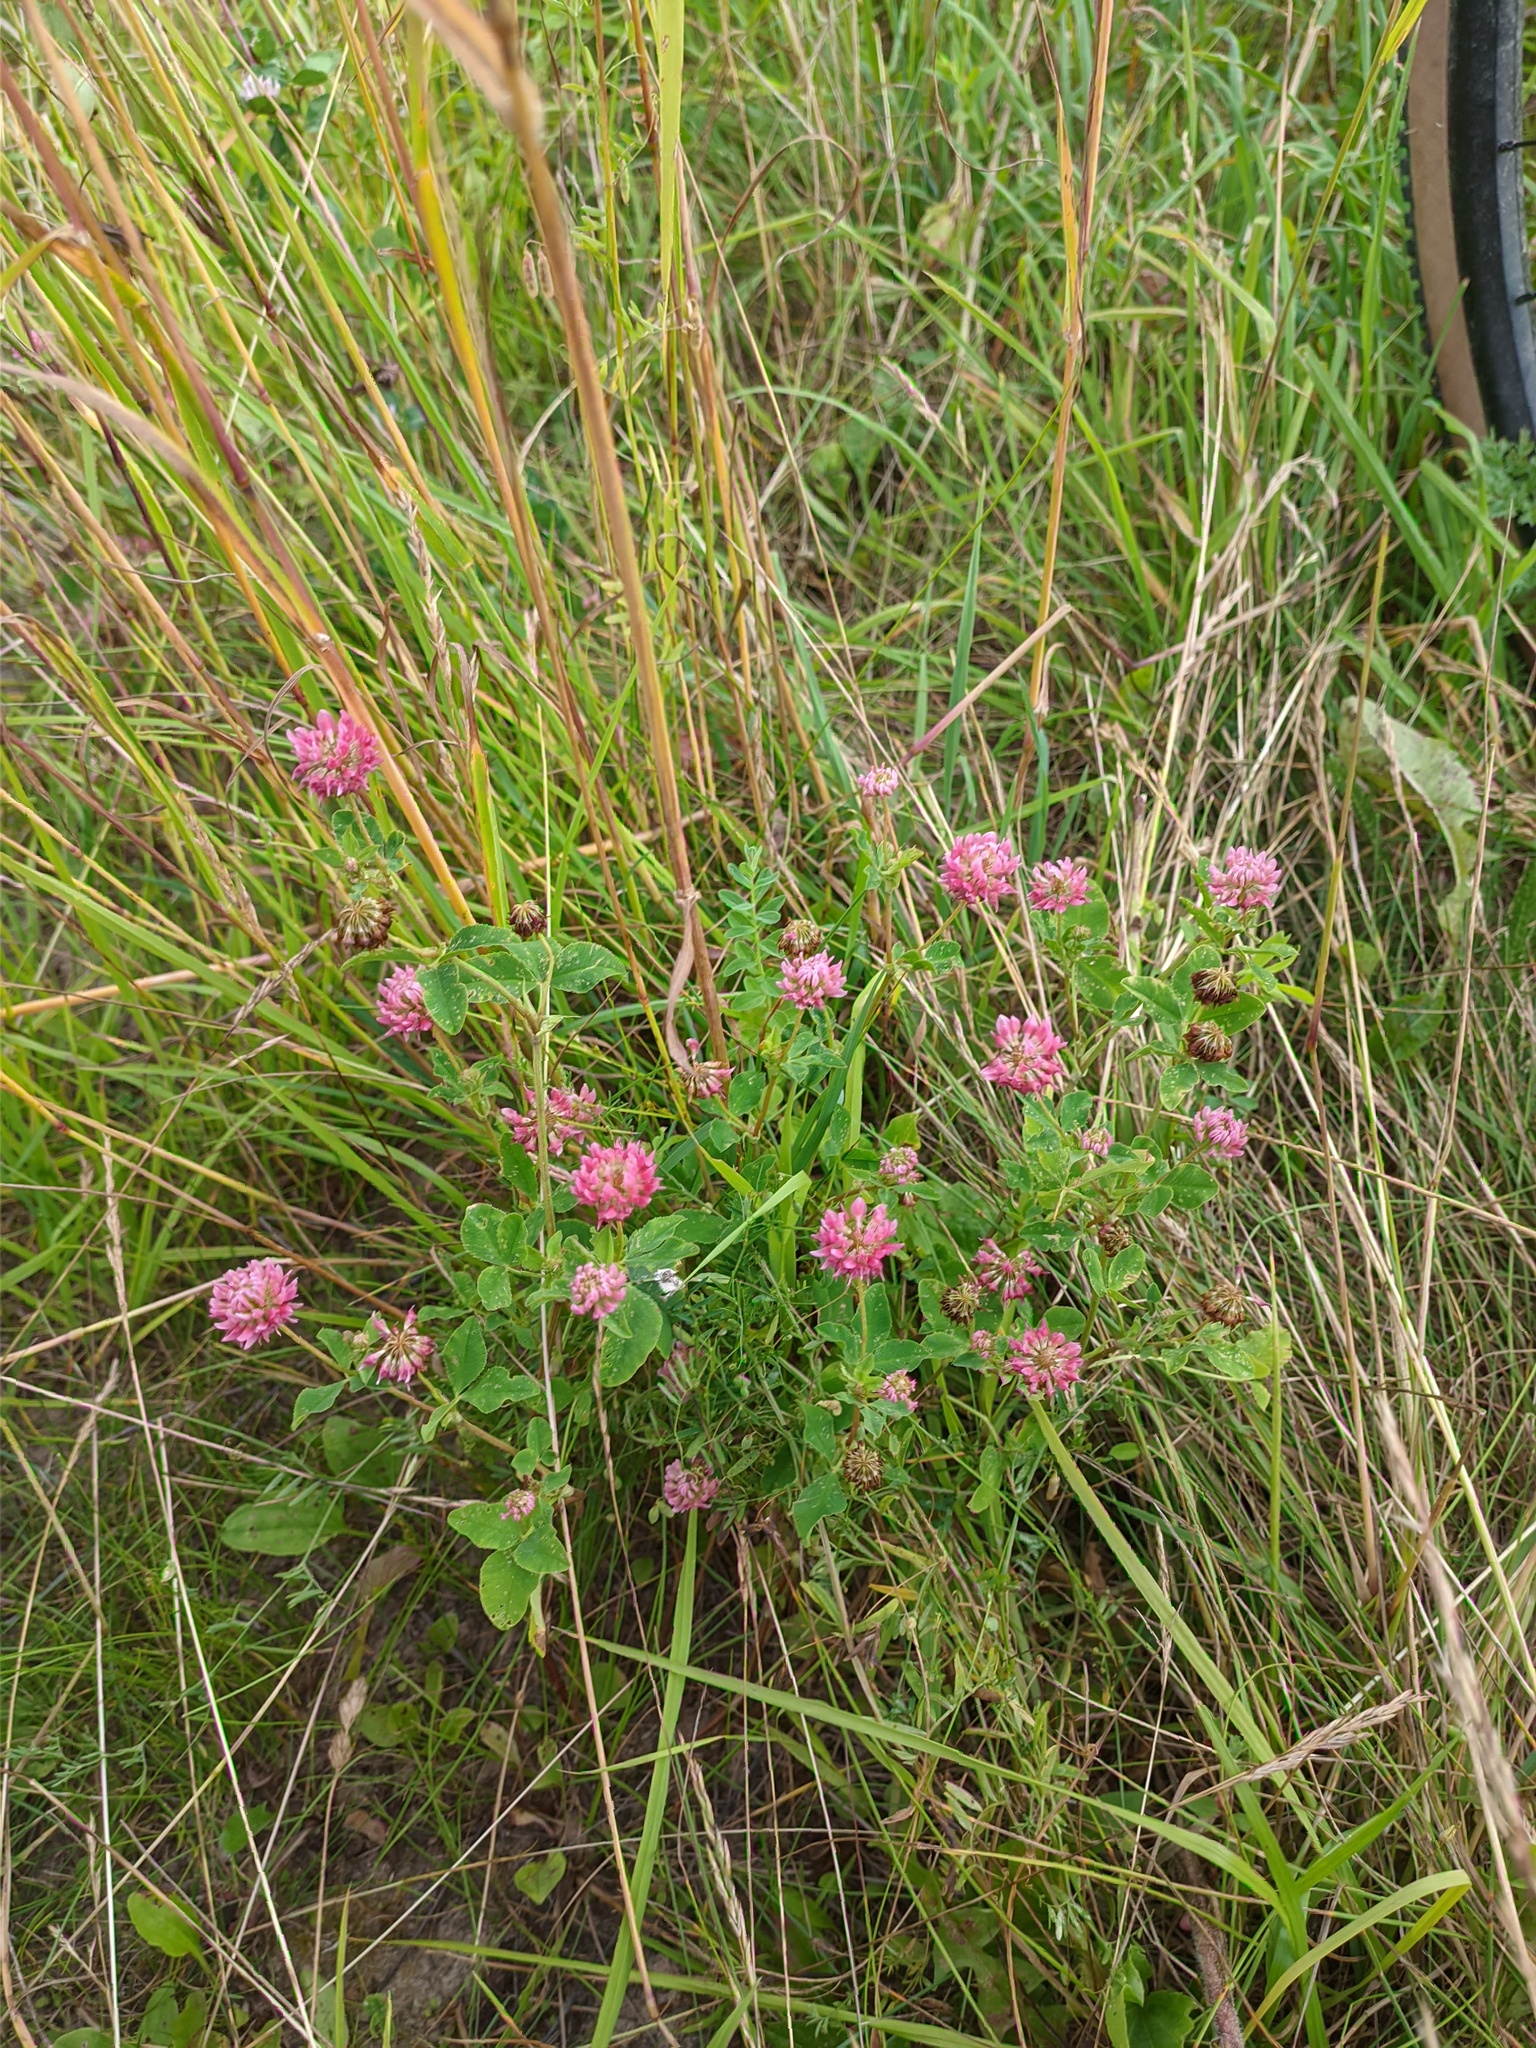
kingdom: Plantae
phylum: Tracheophyta
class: Magnoliopsida
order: Fabales
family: Fabaceae
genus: Trifolium
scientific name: Trifolium hybridum
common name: Alsike clover
